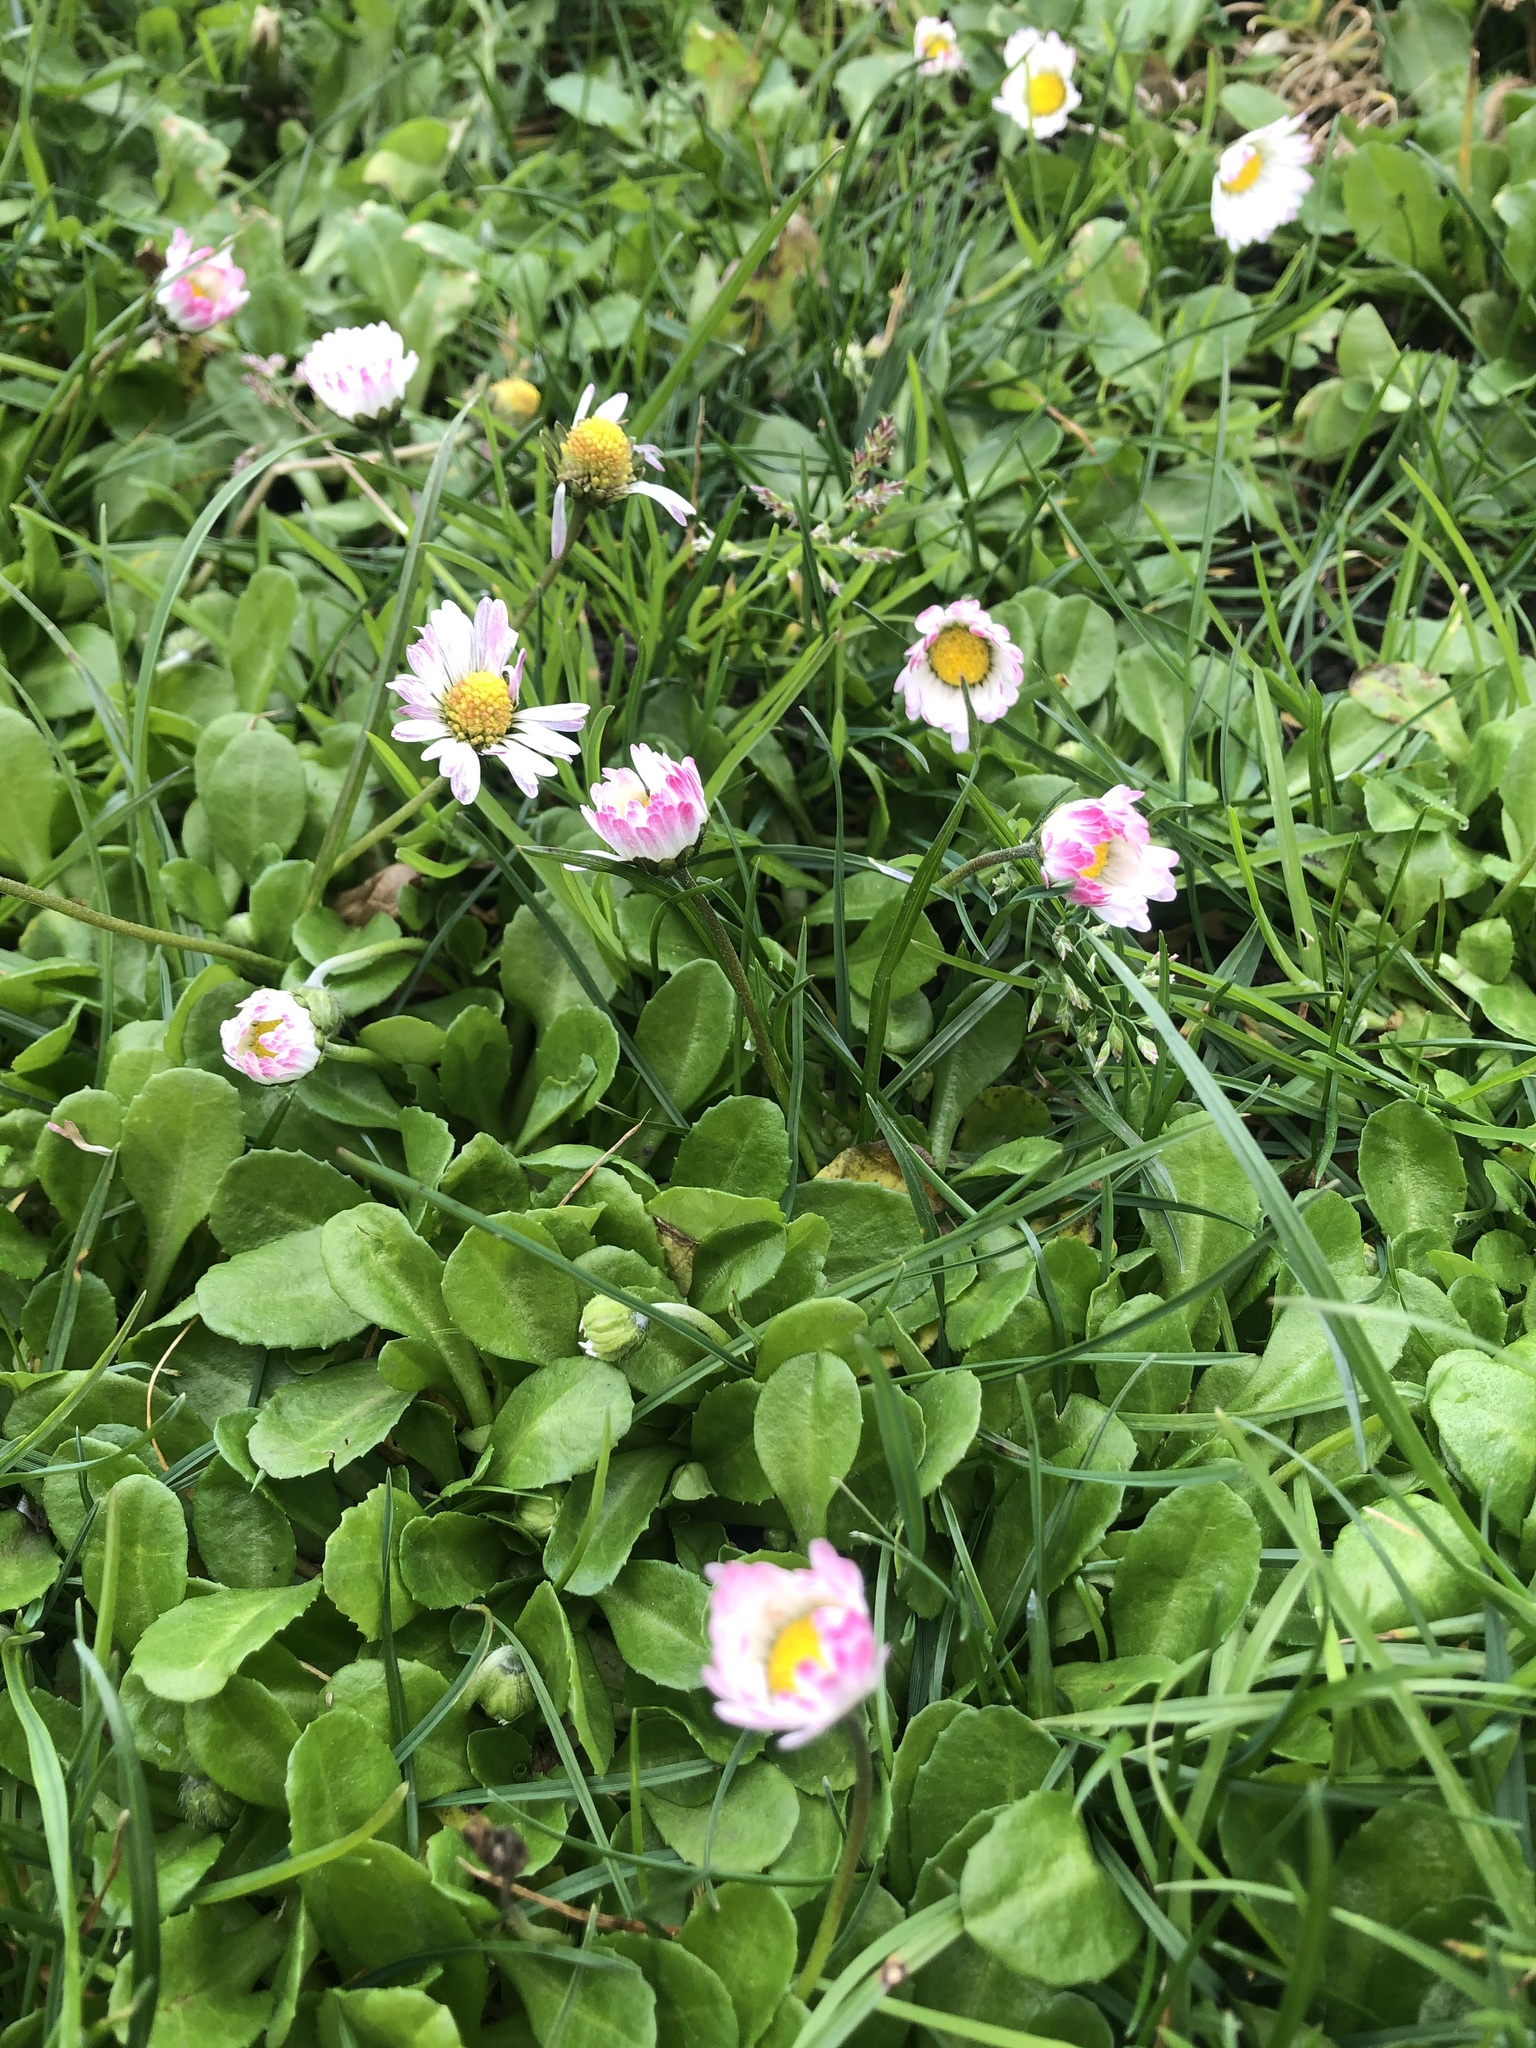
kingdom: Plantae
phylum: Tracheophyta
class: Magnoliopsida
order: Asterales
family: Asteraceae
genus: Bellis
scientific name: Bellis perennis
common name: Lawndaisy
